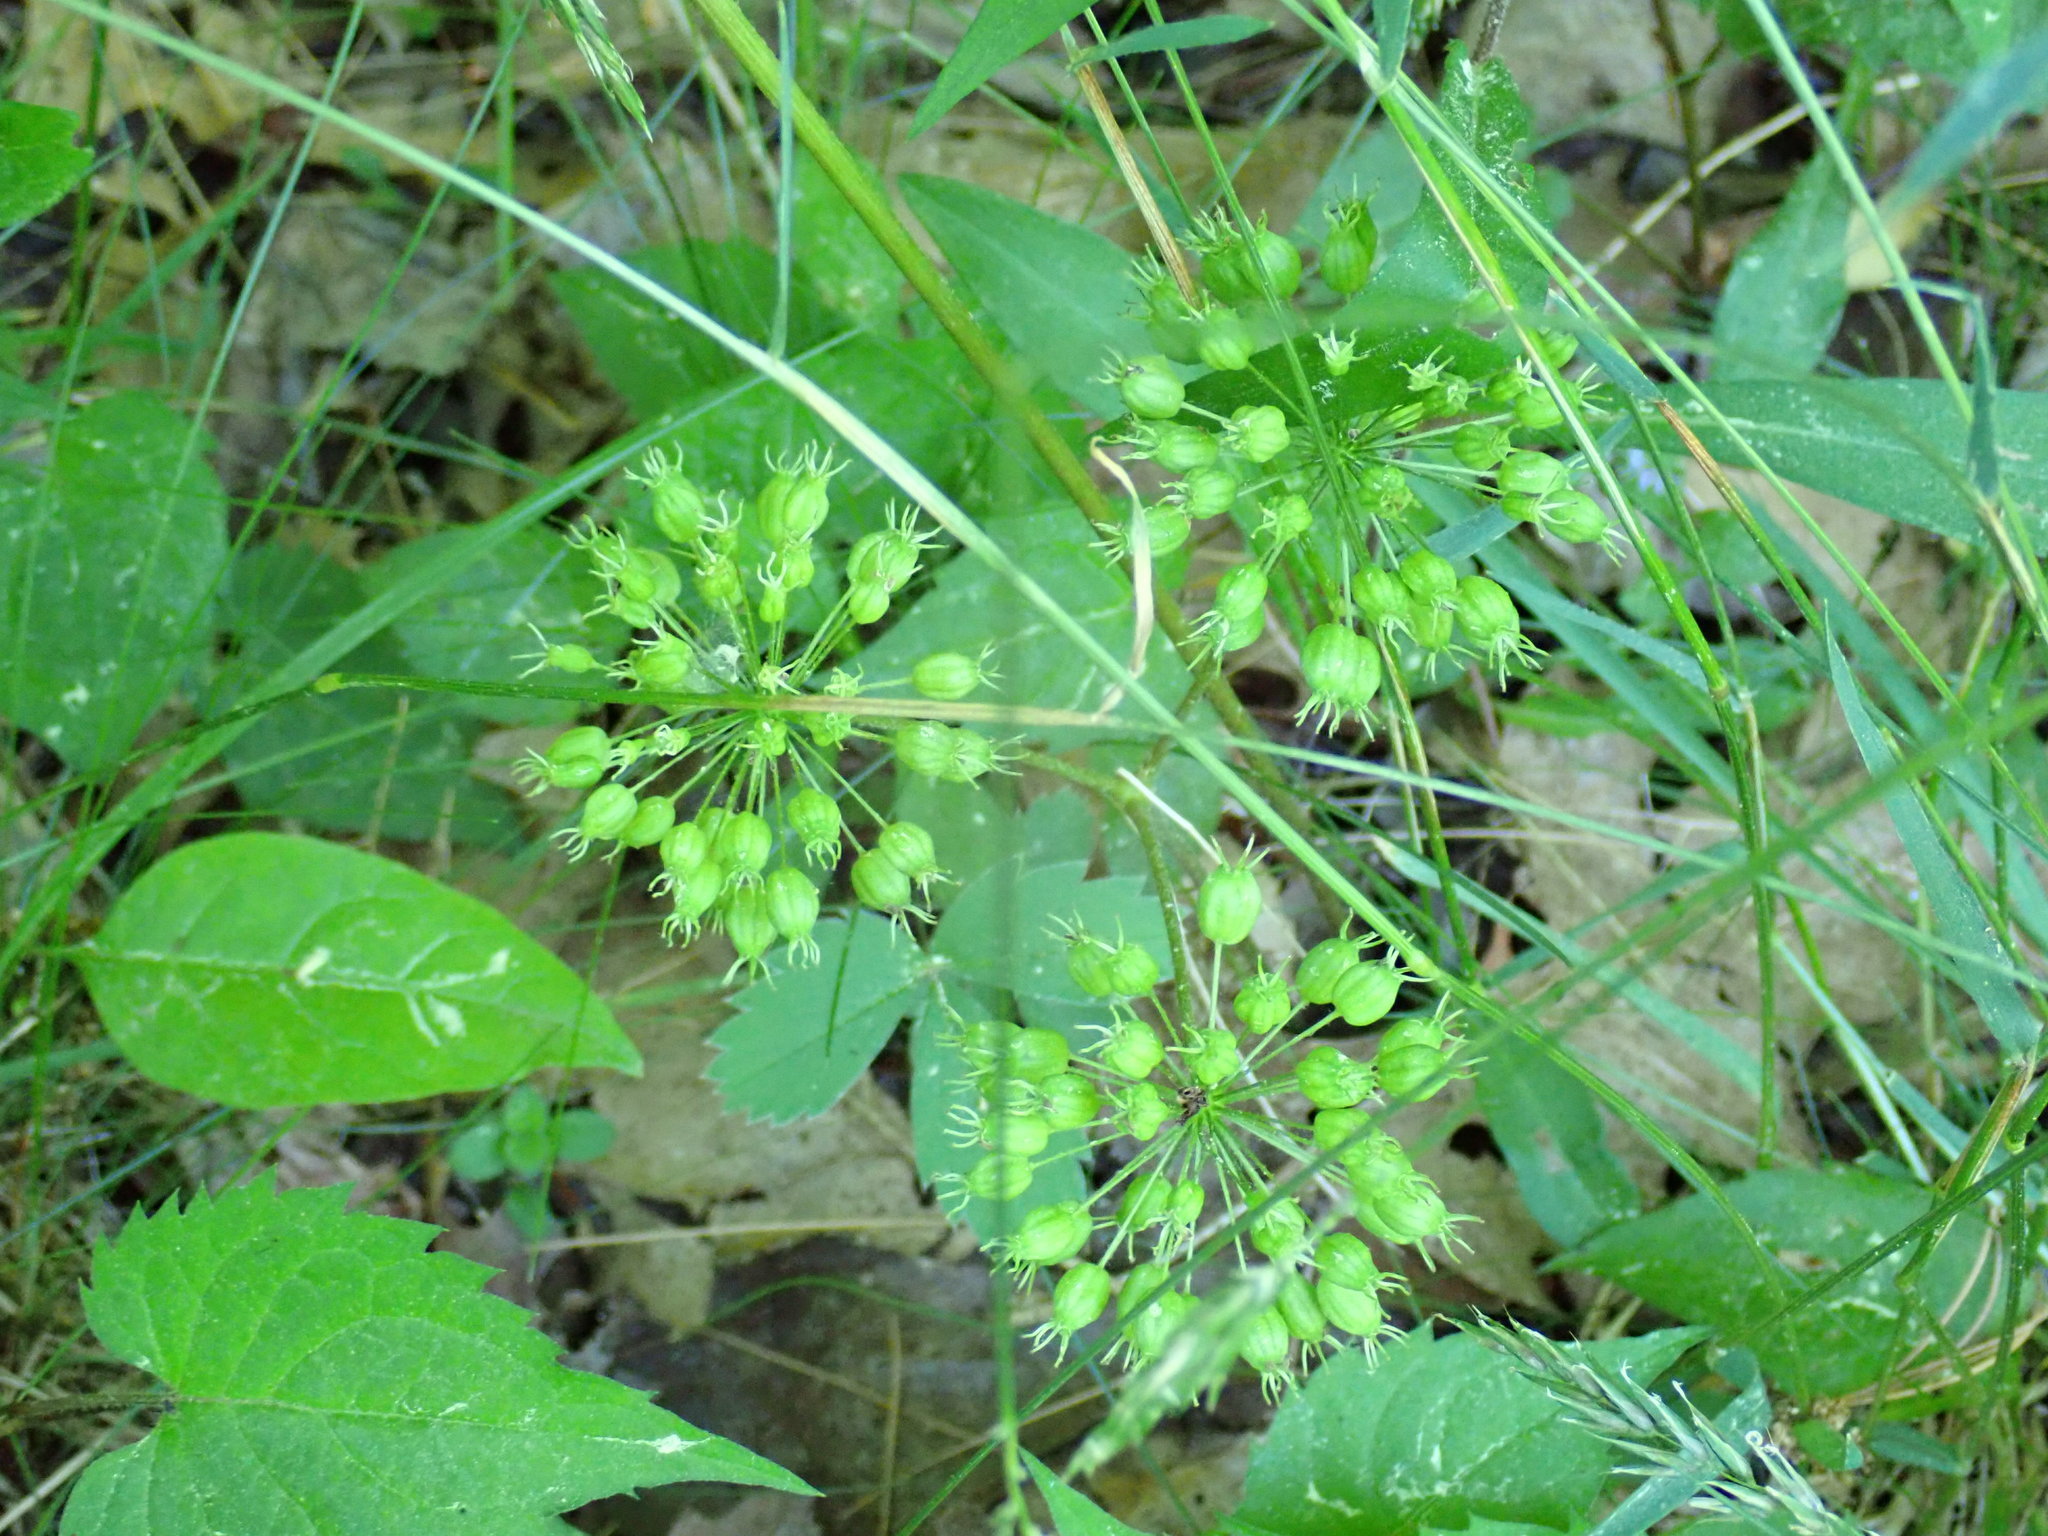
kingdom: Plantae
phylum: Tracheophyta
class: Magnoliopsida
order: Apiales
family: Araliaceae
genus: Aralia
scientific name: Aralia nudicaulis
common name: Wild sarsaparilla
